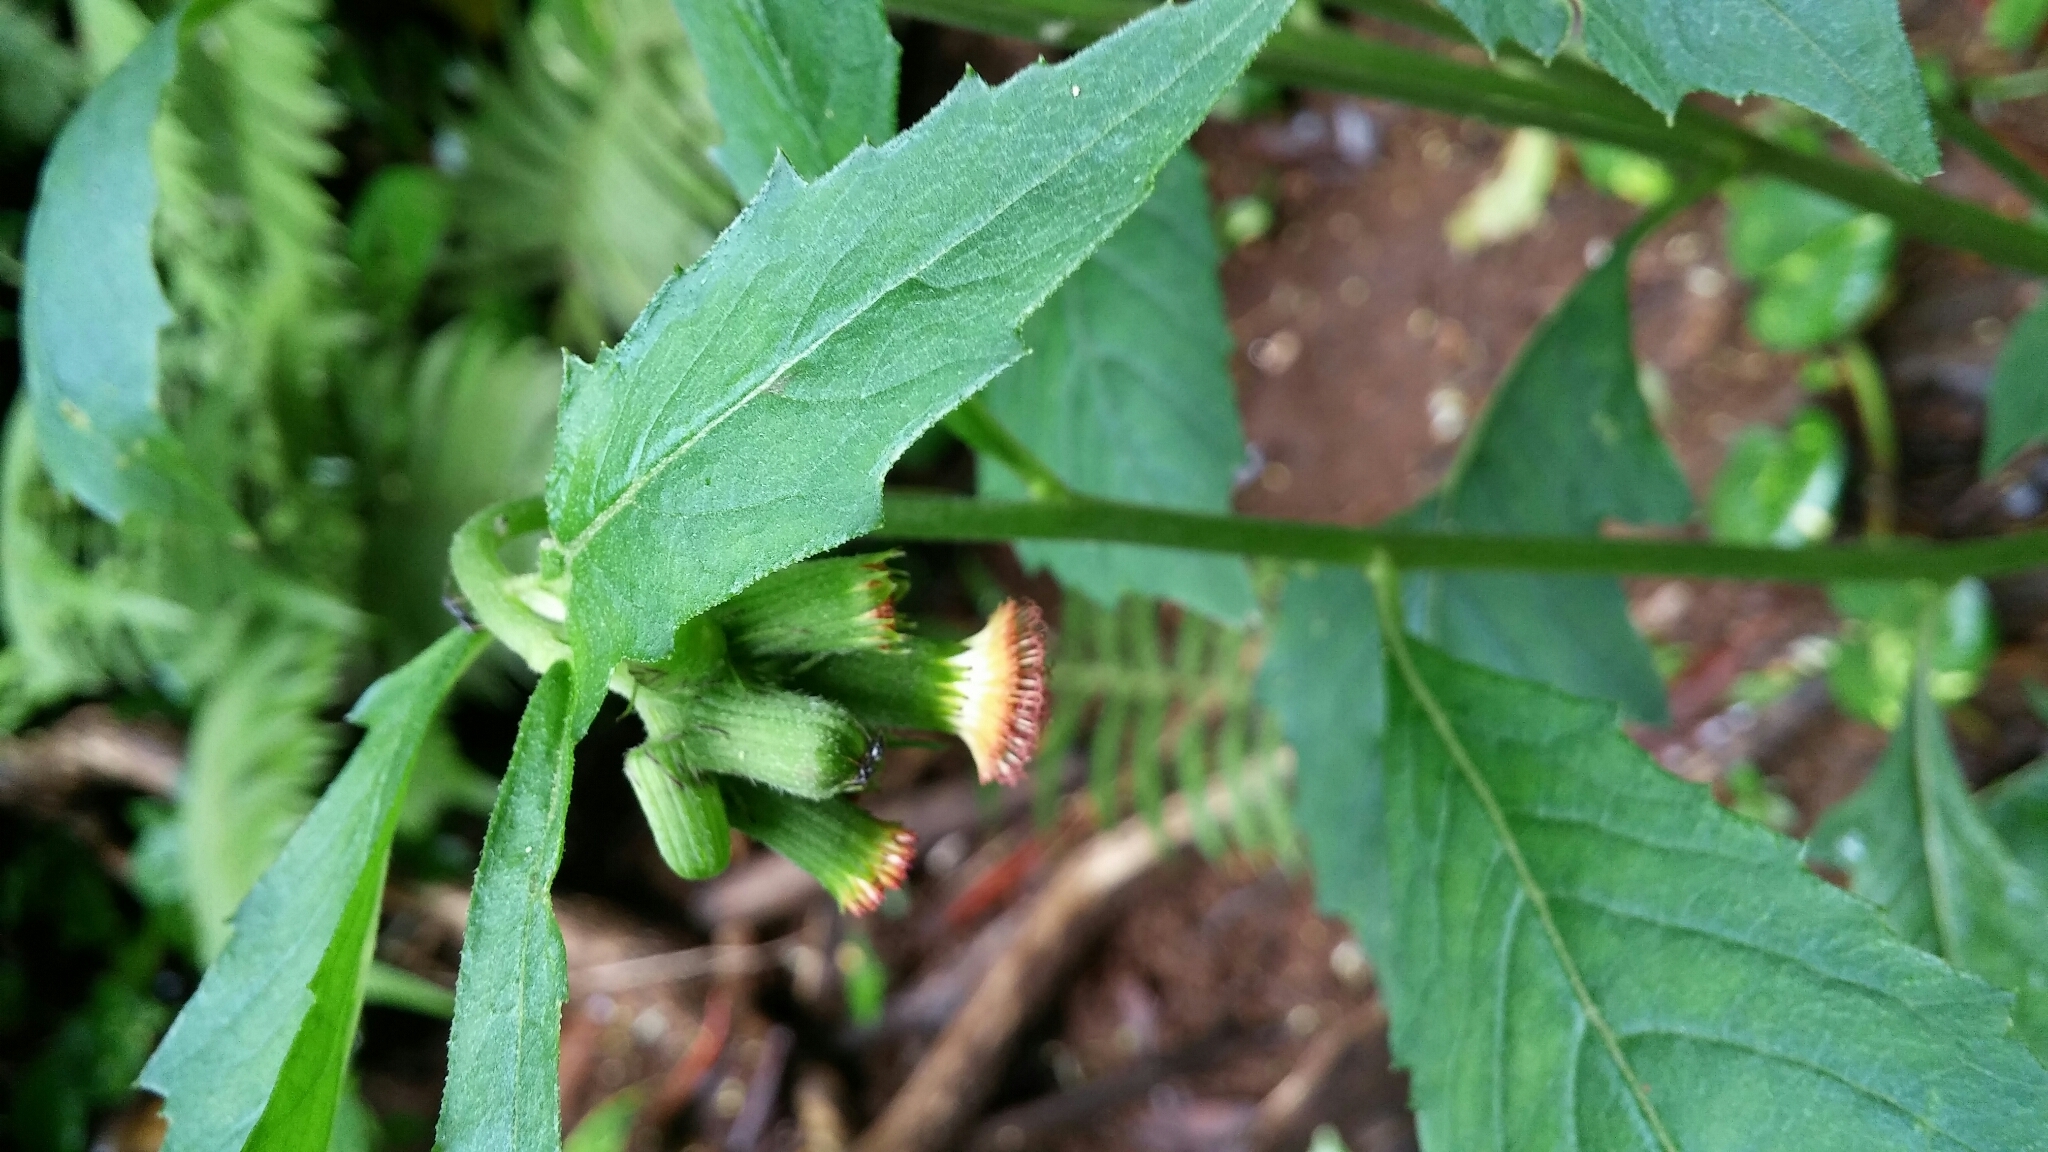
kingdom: Plantae
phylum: Tracheophyta
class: Magnoliopsida
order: Asterales
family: Asteraceae
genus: Crassocephalum
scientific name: Crassocephalum crepidioides
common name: Redflower ragleaf
